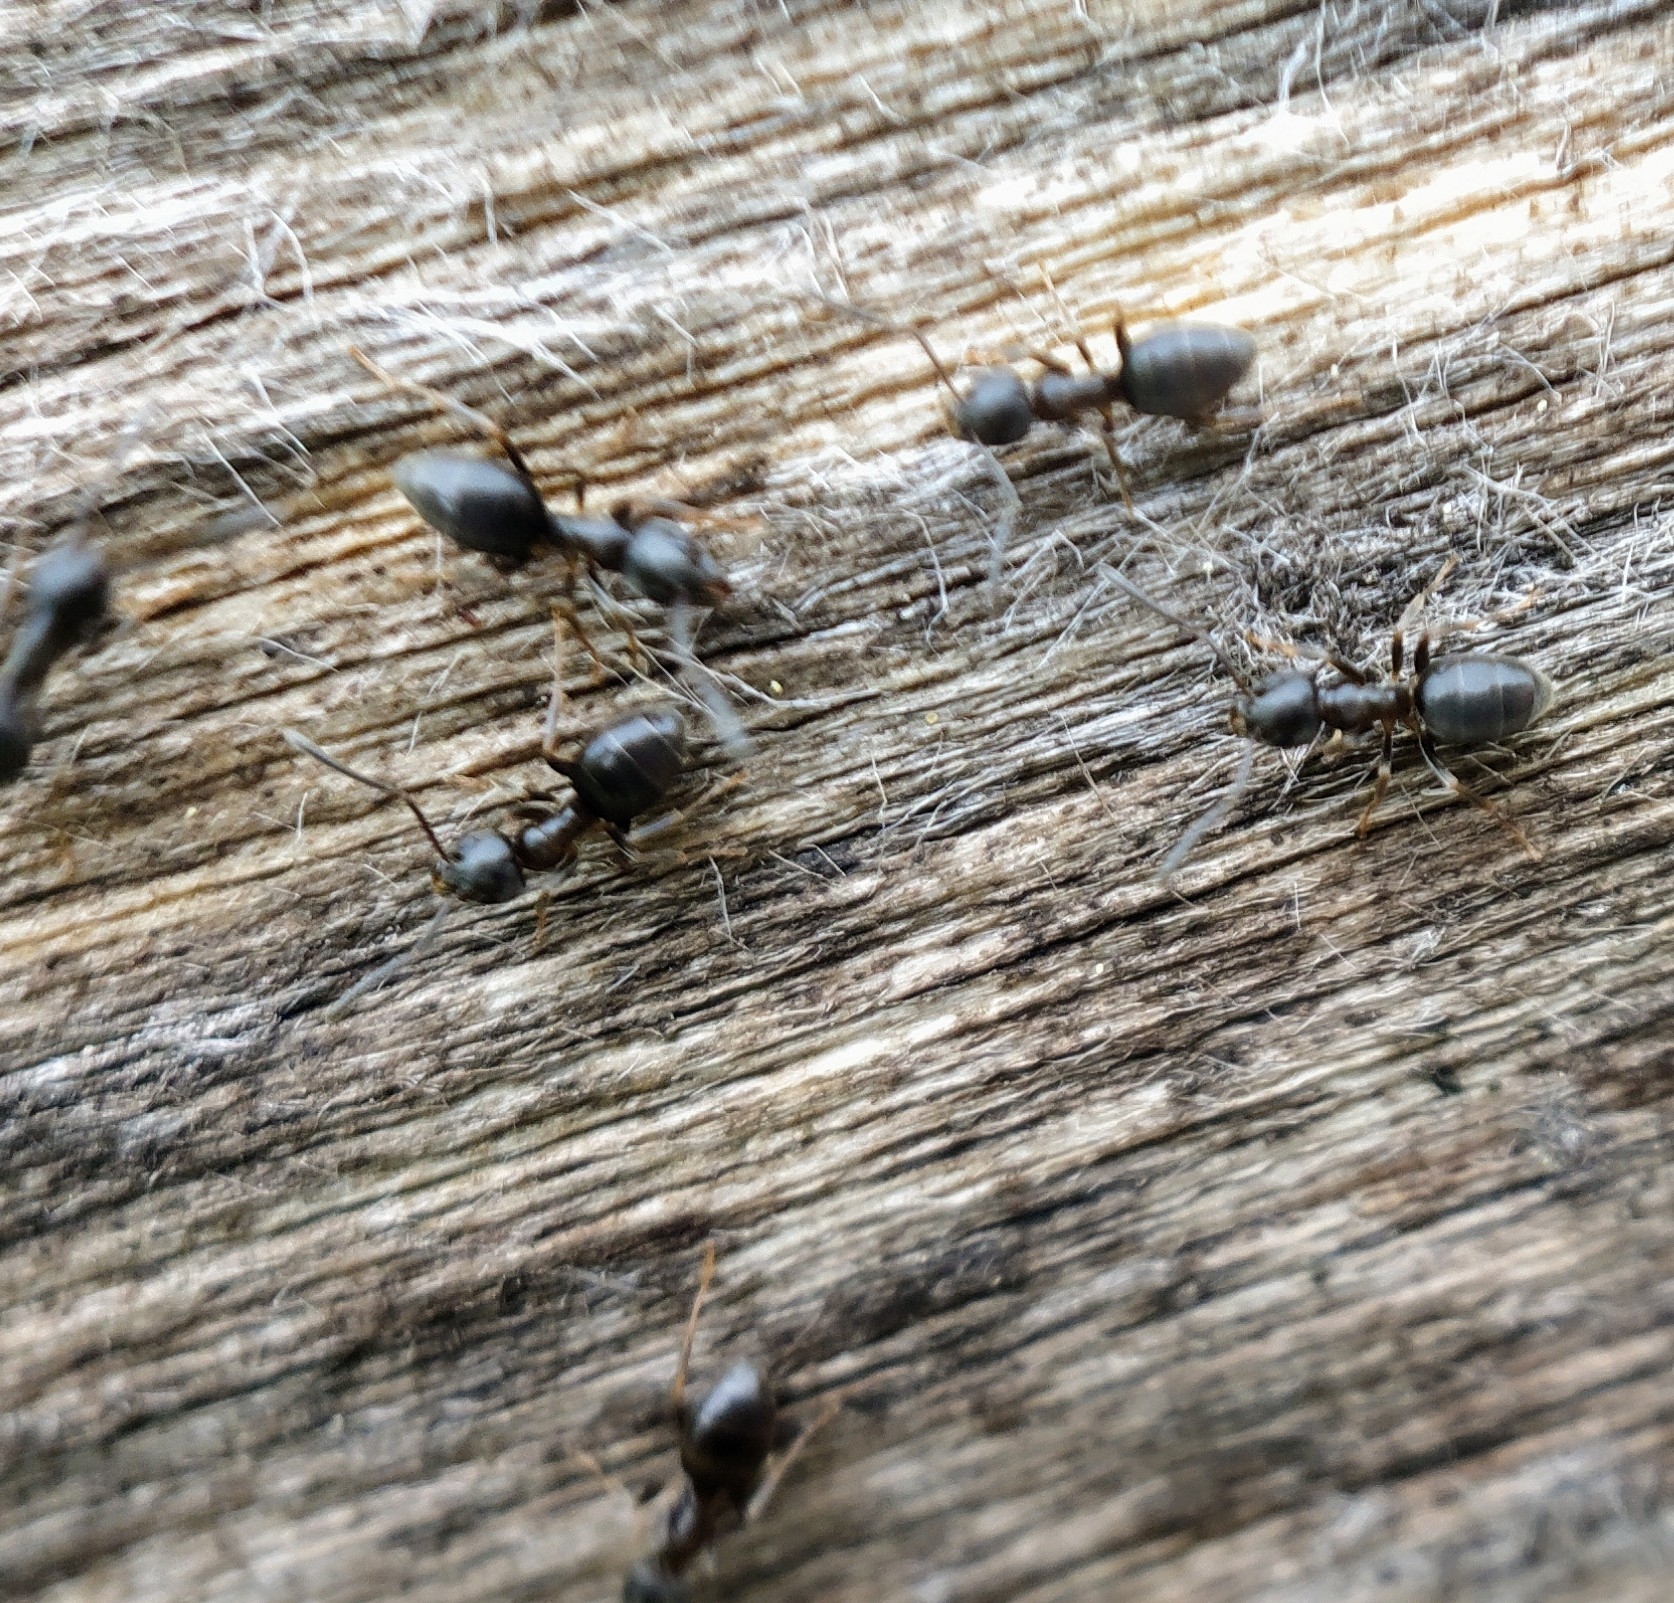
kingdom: Animalia
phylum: Arthropoda
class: Insecta
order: Hymenoptera
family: Formicidae
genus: Tapinoma
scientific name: Tapinoma sessile
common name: Odorous house ant
